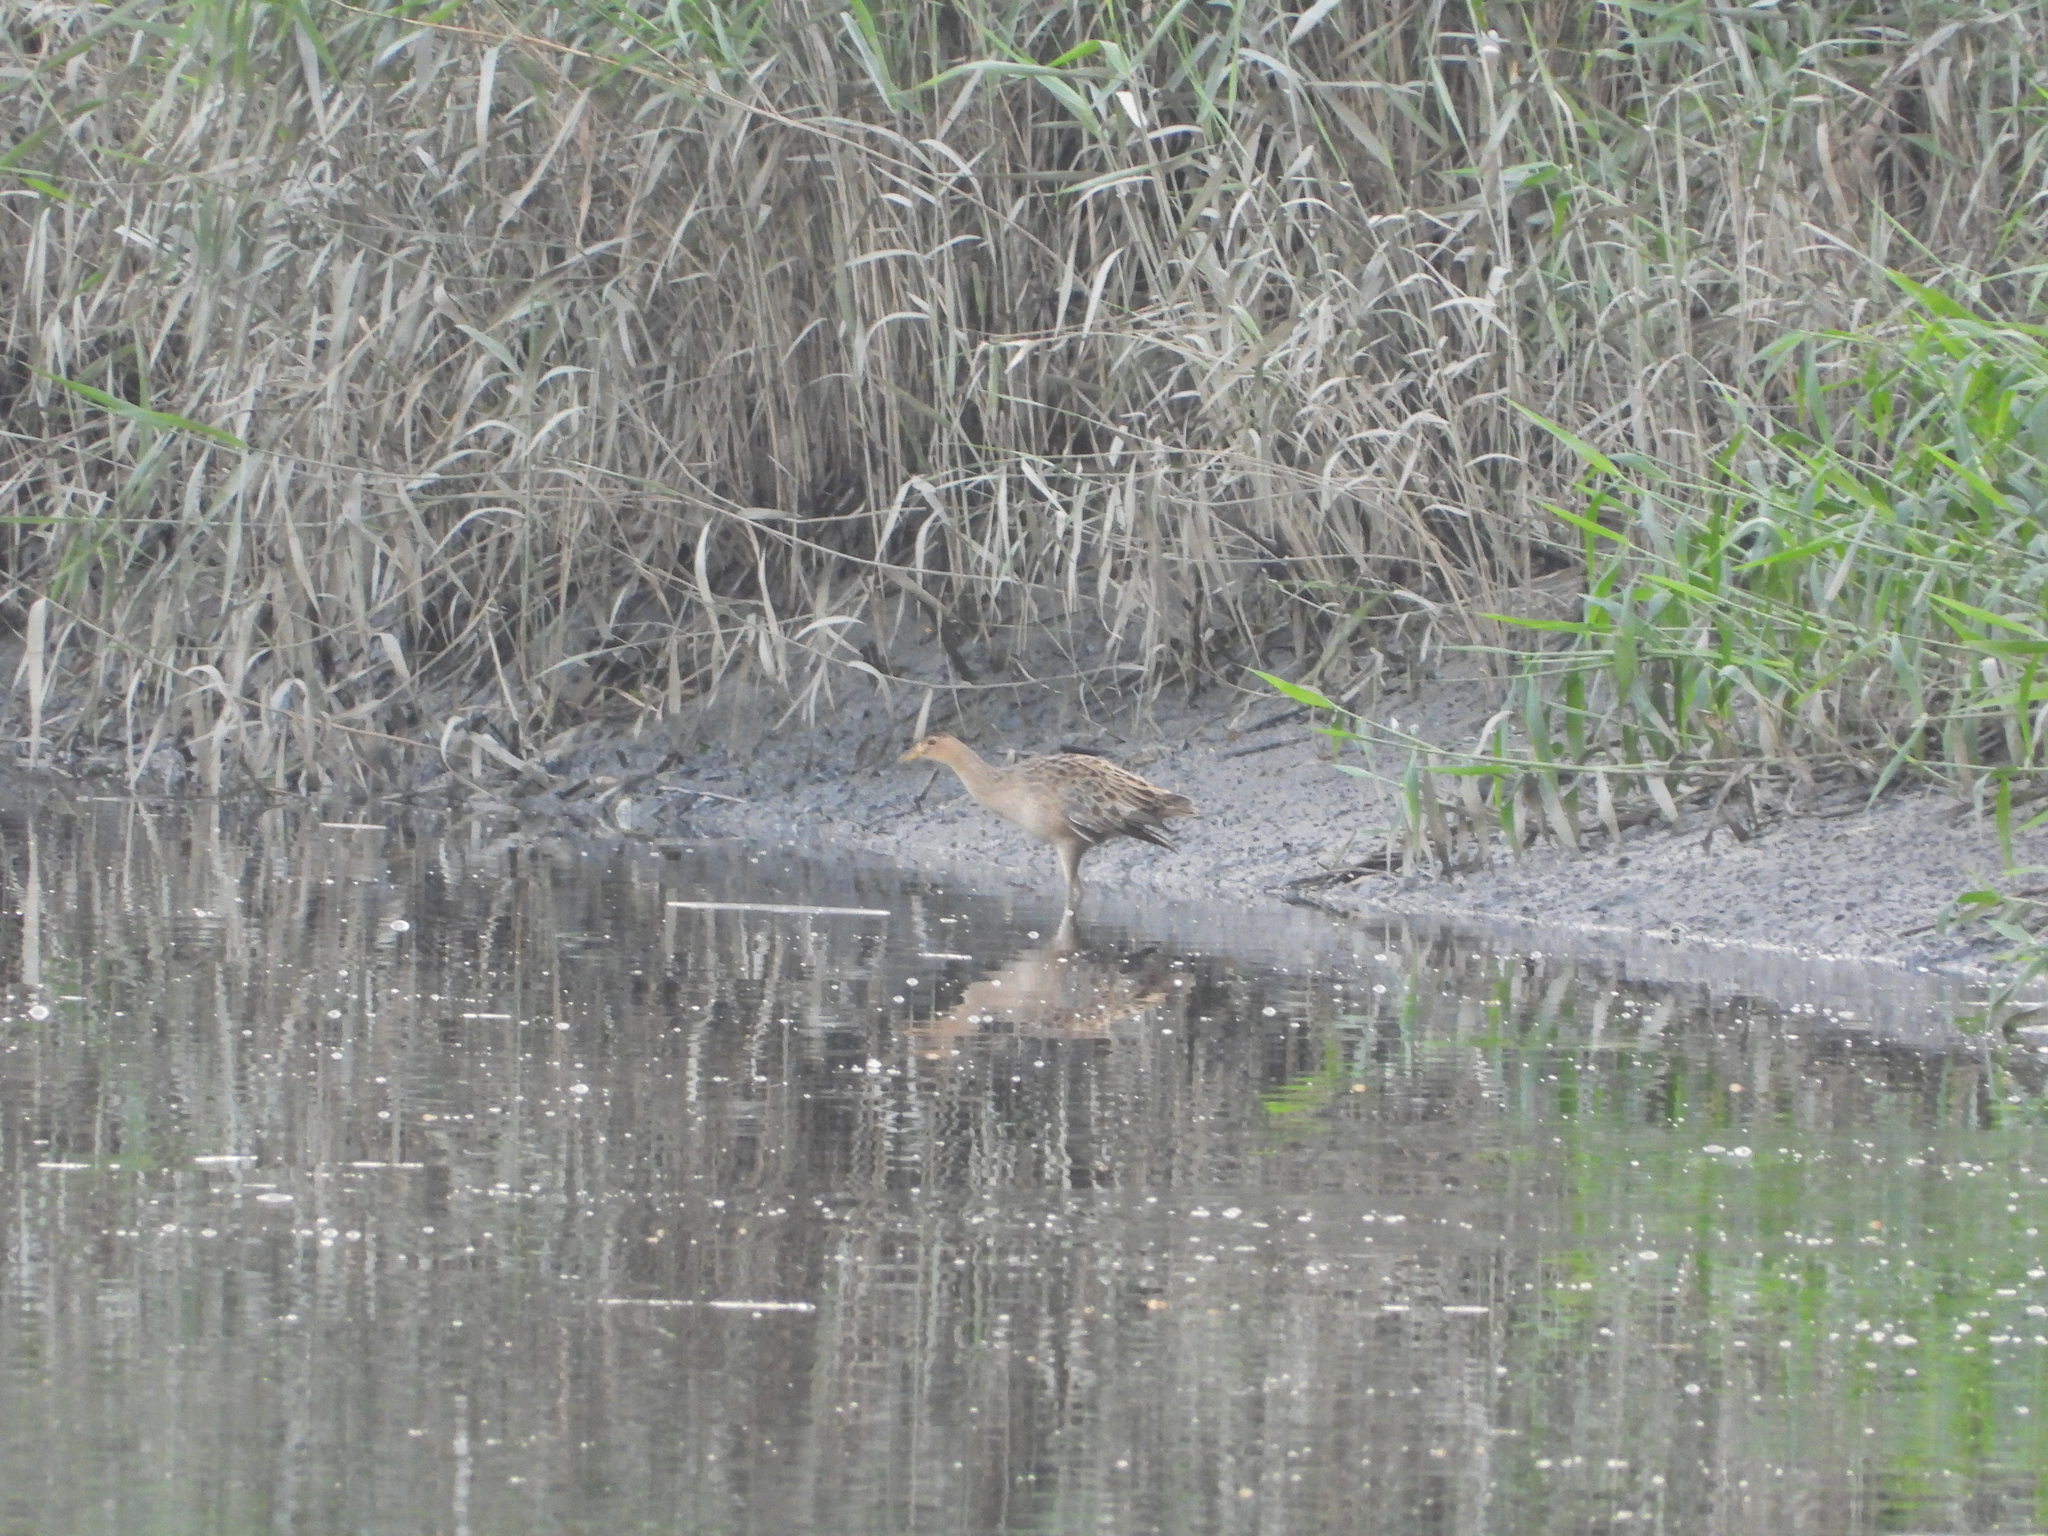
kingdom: Animalia
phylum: Chordata
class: Aves
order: Gruiformes
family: Rallidae
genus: Gallicrex
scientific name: Gallicrex cinerea
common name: Watercock
